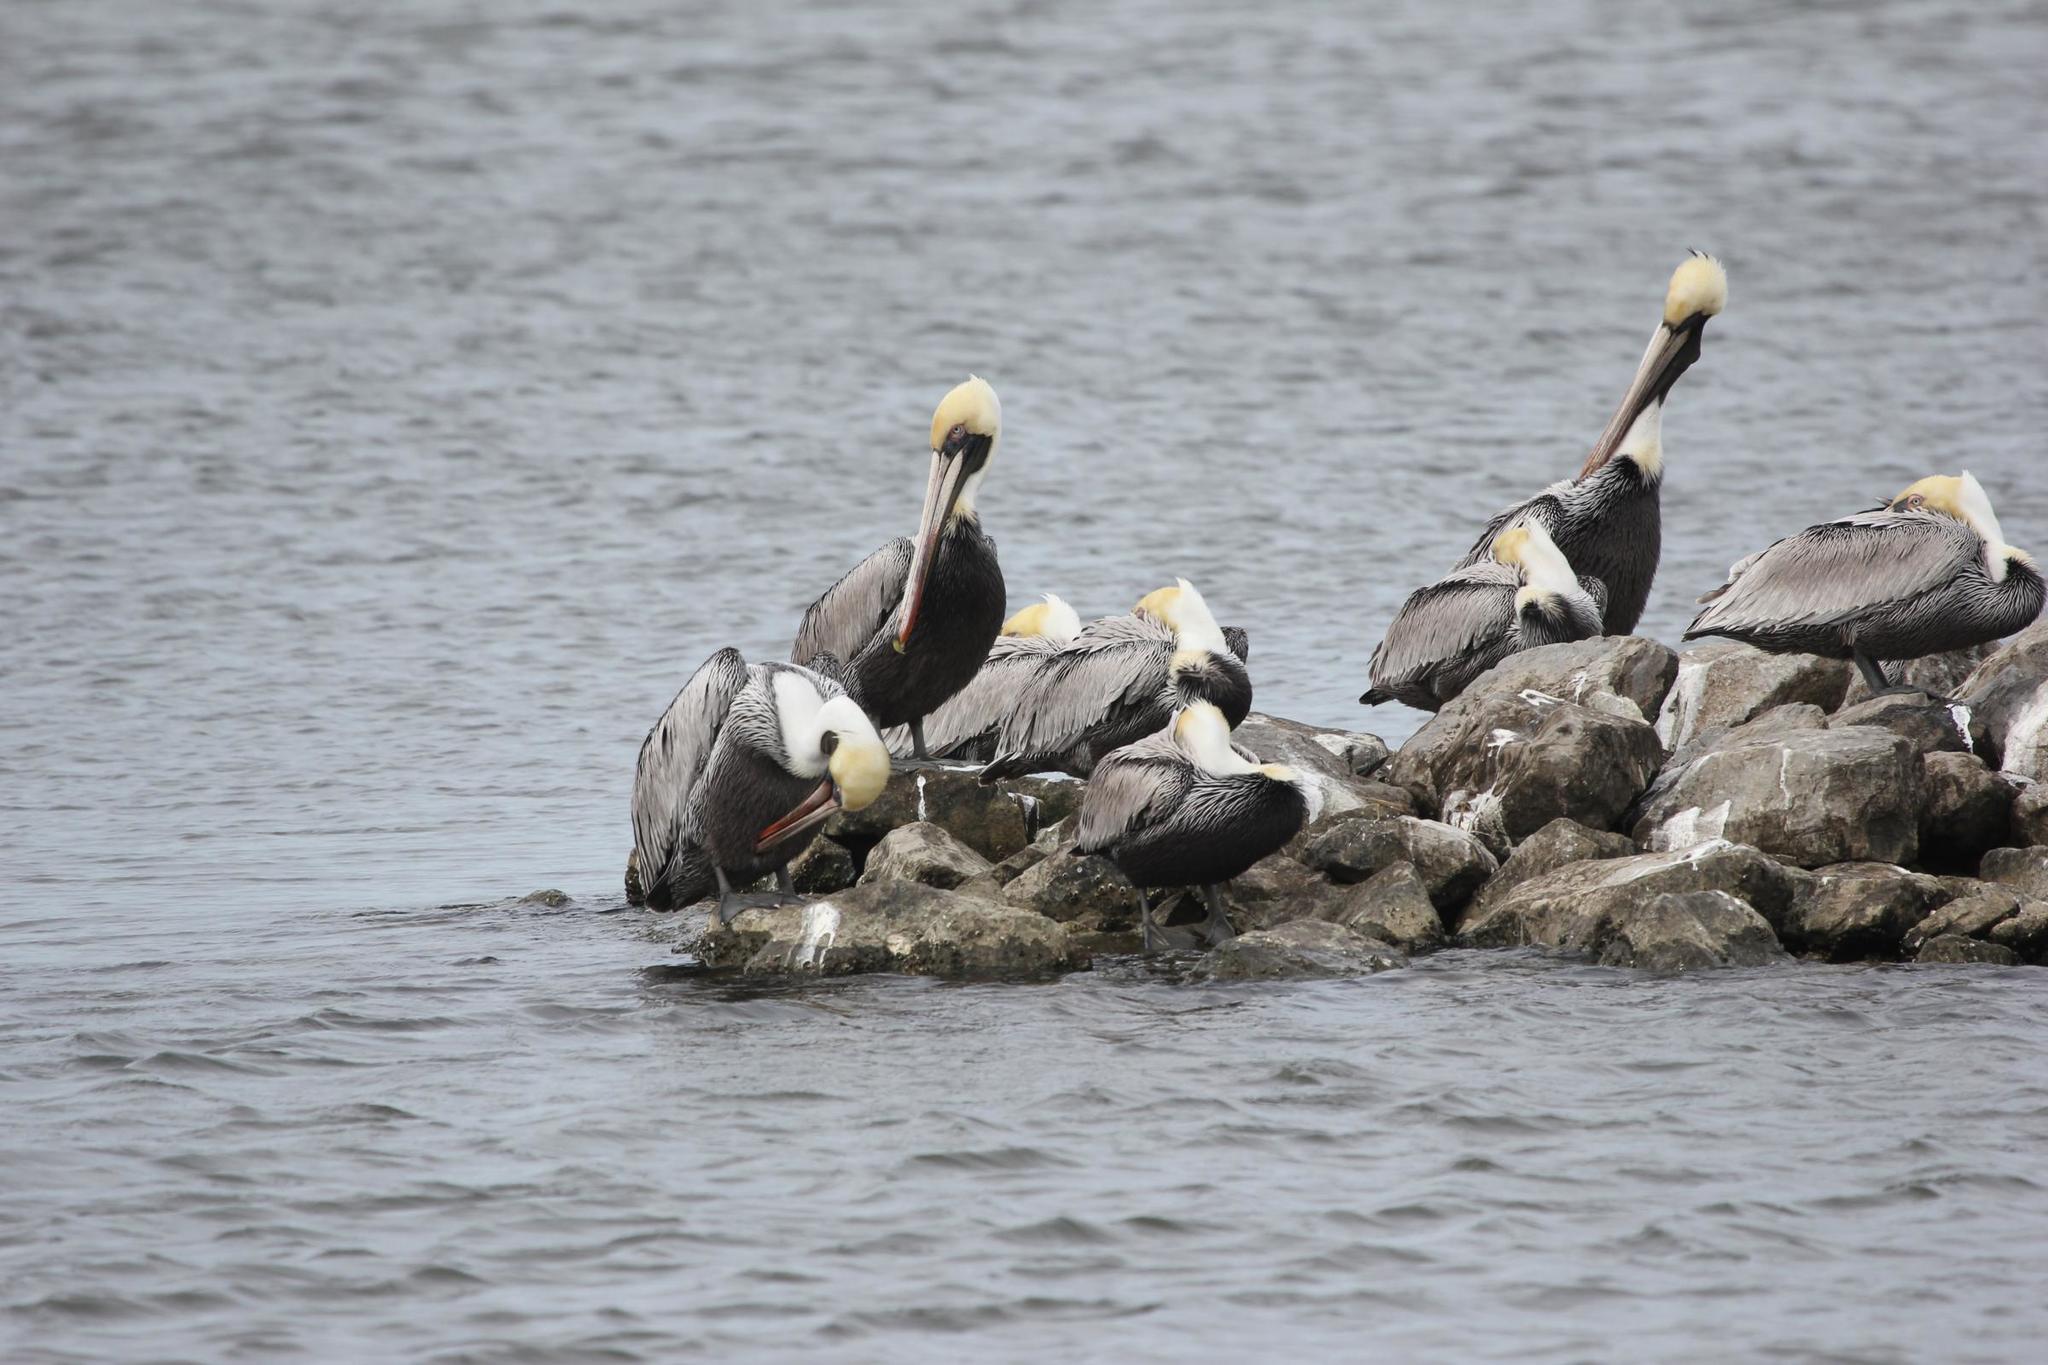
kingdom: Animalia
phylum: Chordata
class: Aves
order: Pelecaniformes
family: Pelecanidae
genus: Pelecanus
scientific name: Pelecanus occidentalis
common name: Brown pelican
